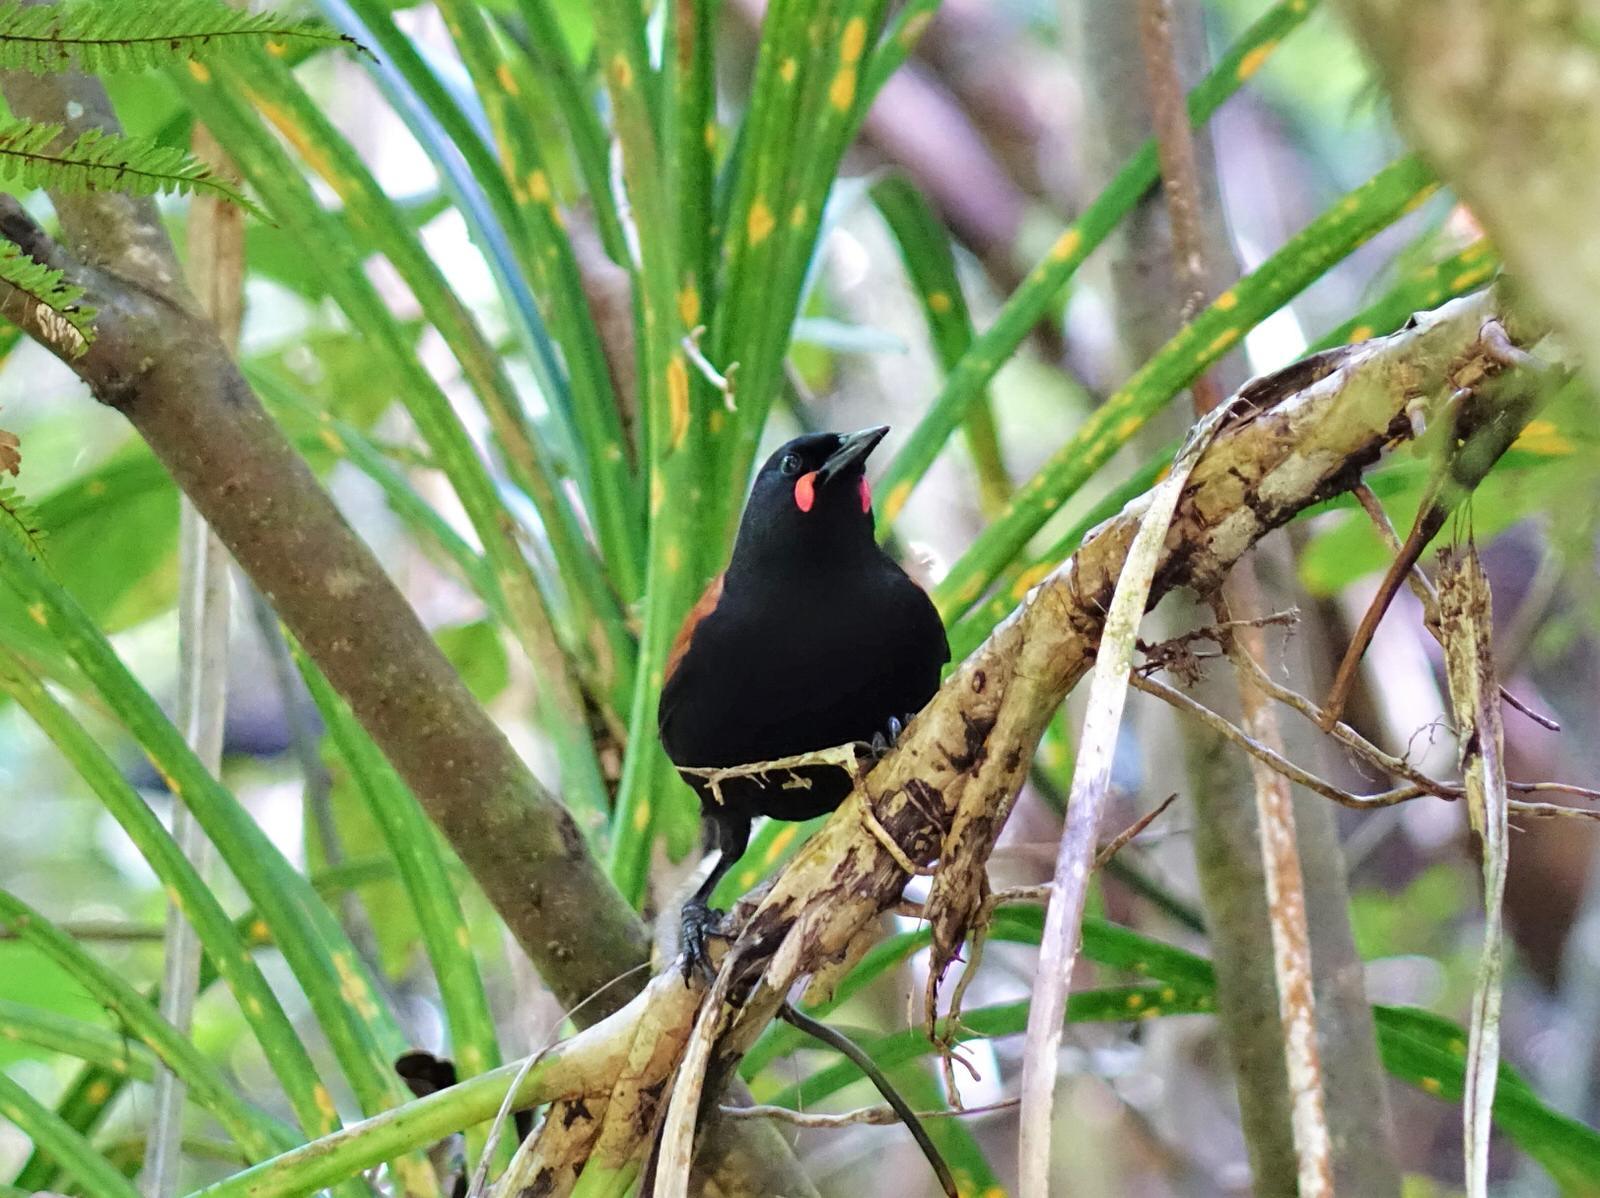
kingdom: Animalia
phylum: Chordata
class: Aves
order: Passeriformes
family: Callaeatidae
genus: Philesturnus
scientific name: Philesturnus carunculatus
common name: South island saddleback
